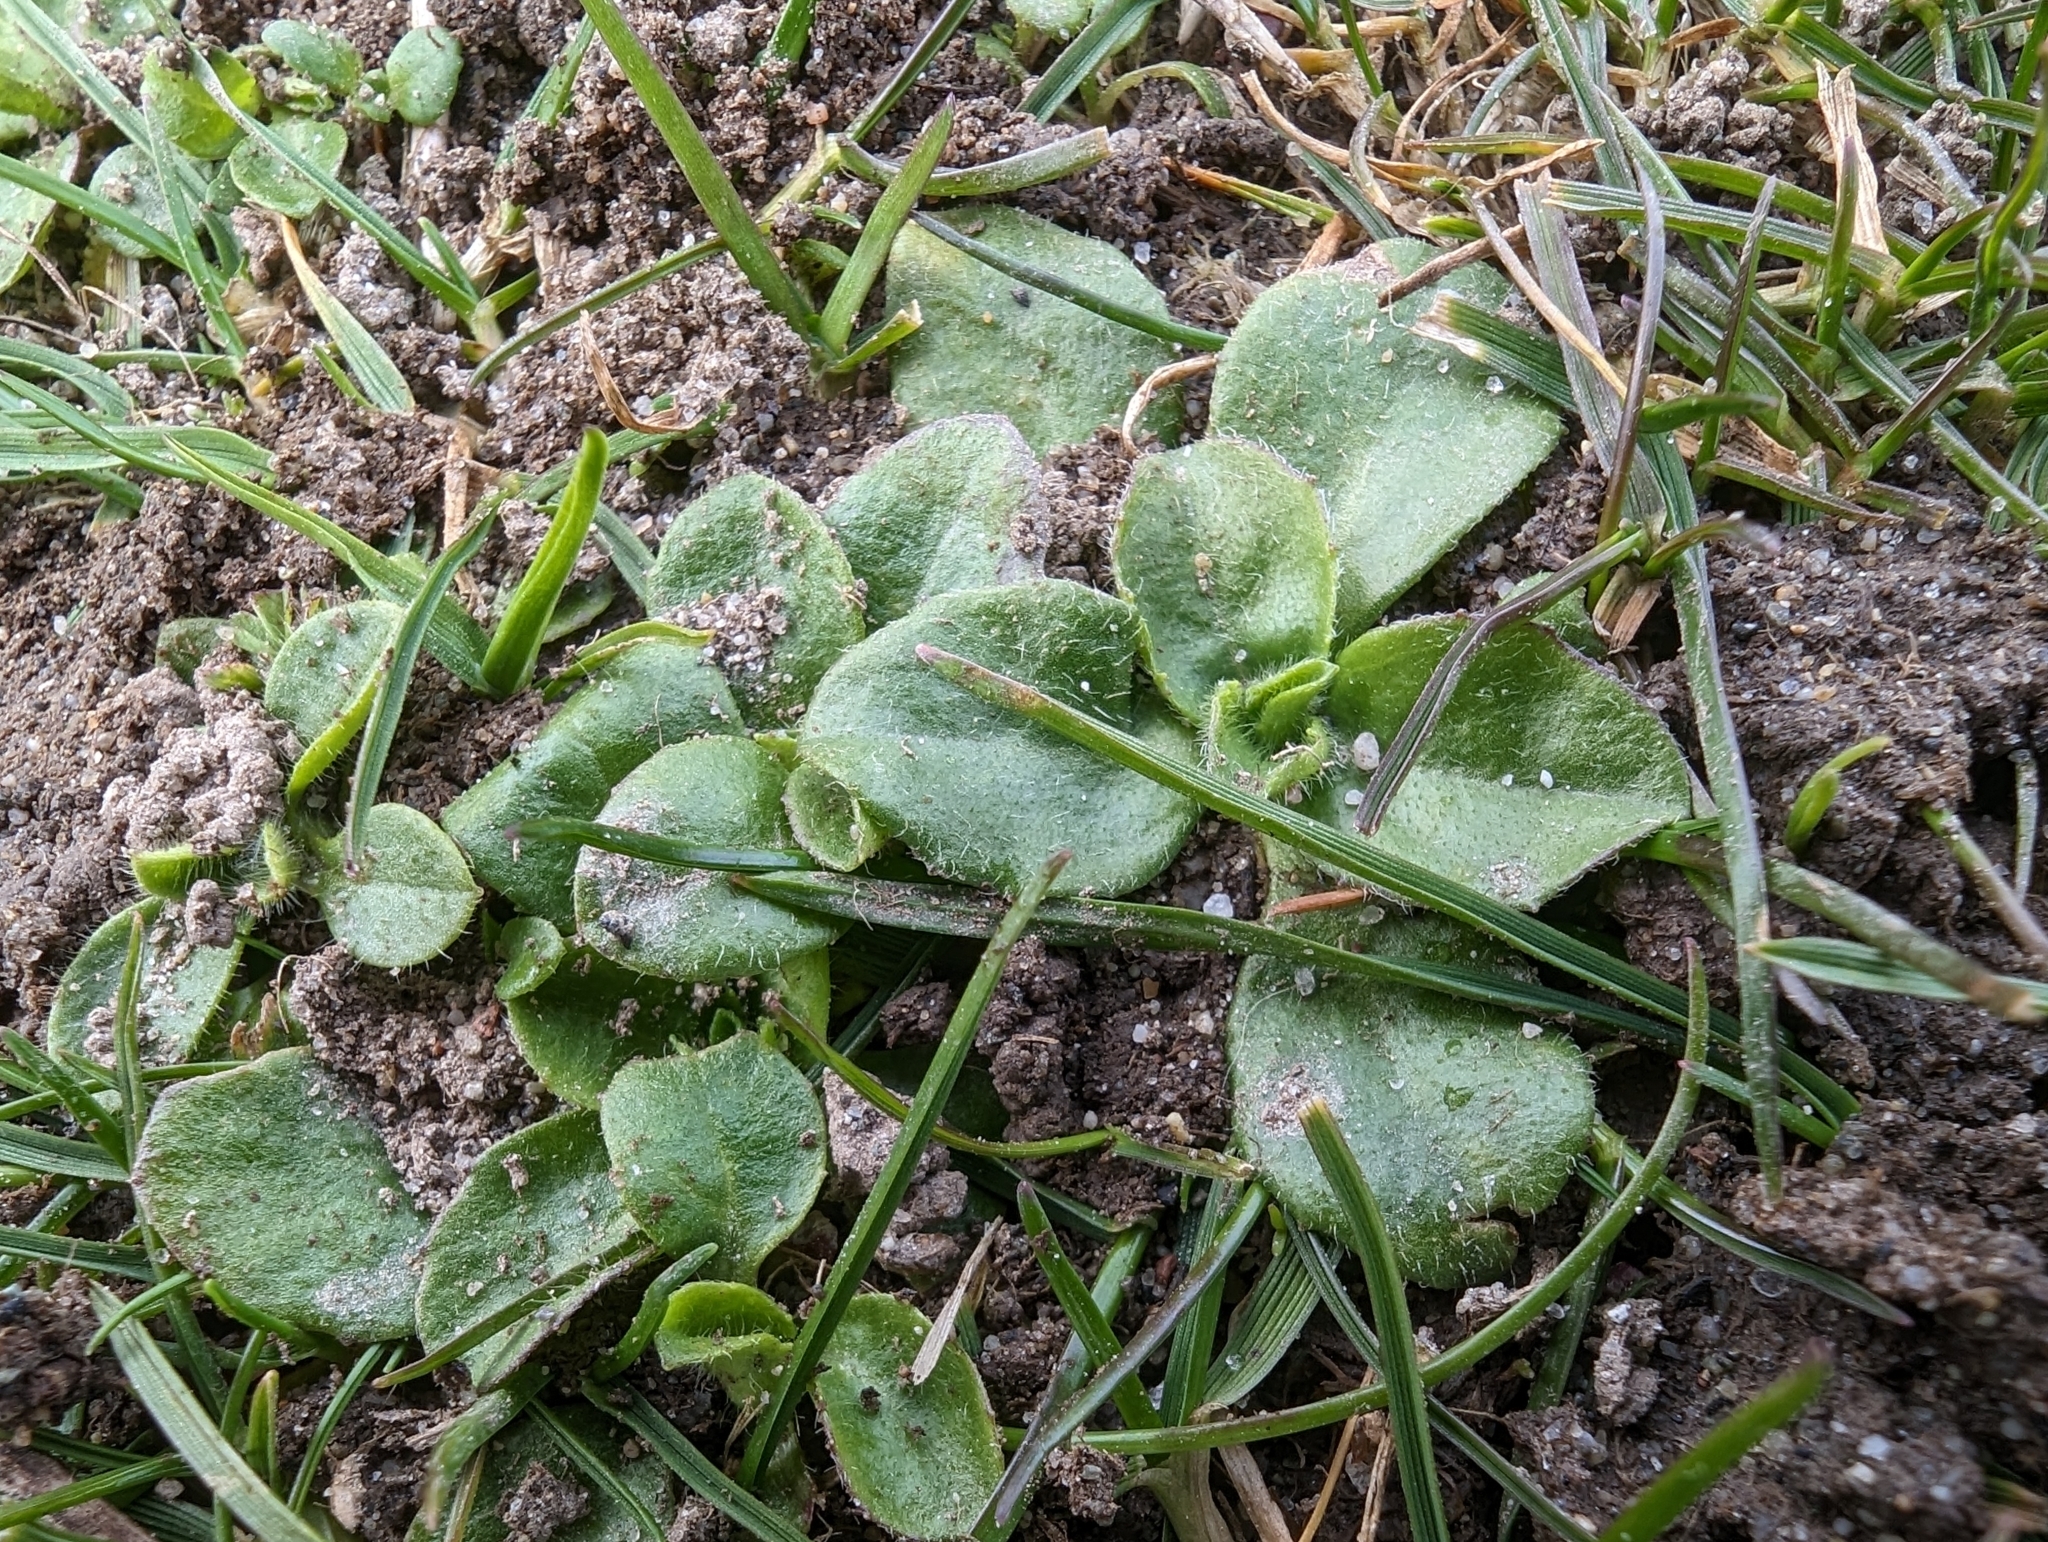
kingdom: Plantae
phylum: Tracheophyta
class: Magnoliopsida
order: Asterales
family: Asteraceae
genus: Bellis
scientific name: Bellis perennis
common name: Lawndaisy
